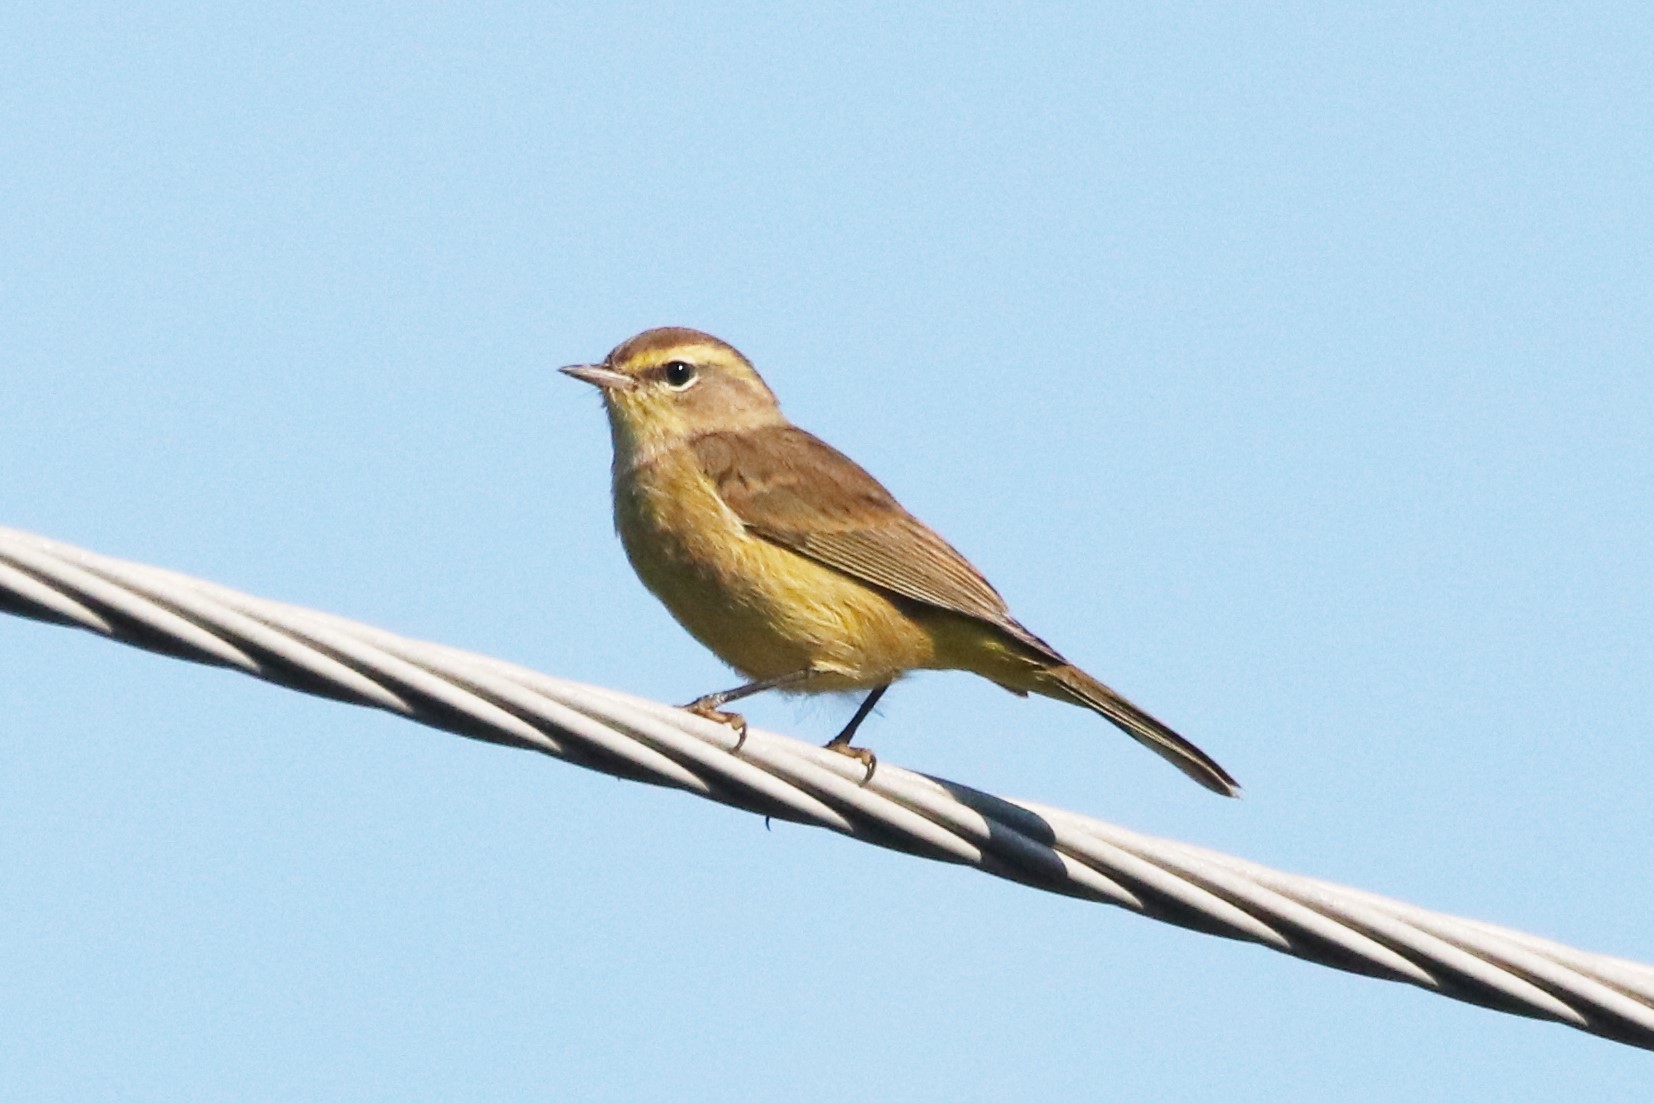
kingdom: Animalia
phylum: Chordata
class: Aves
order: Passeriformes
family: Parulidae
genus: Setophaga
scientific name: Setophaga palmarum
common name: Palm warbler
